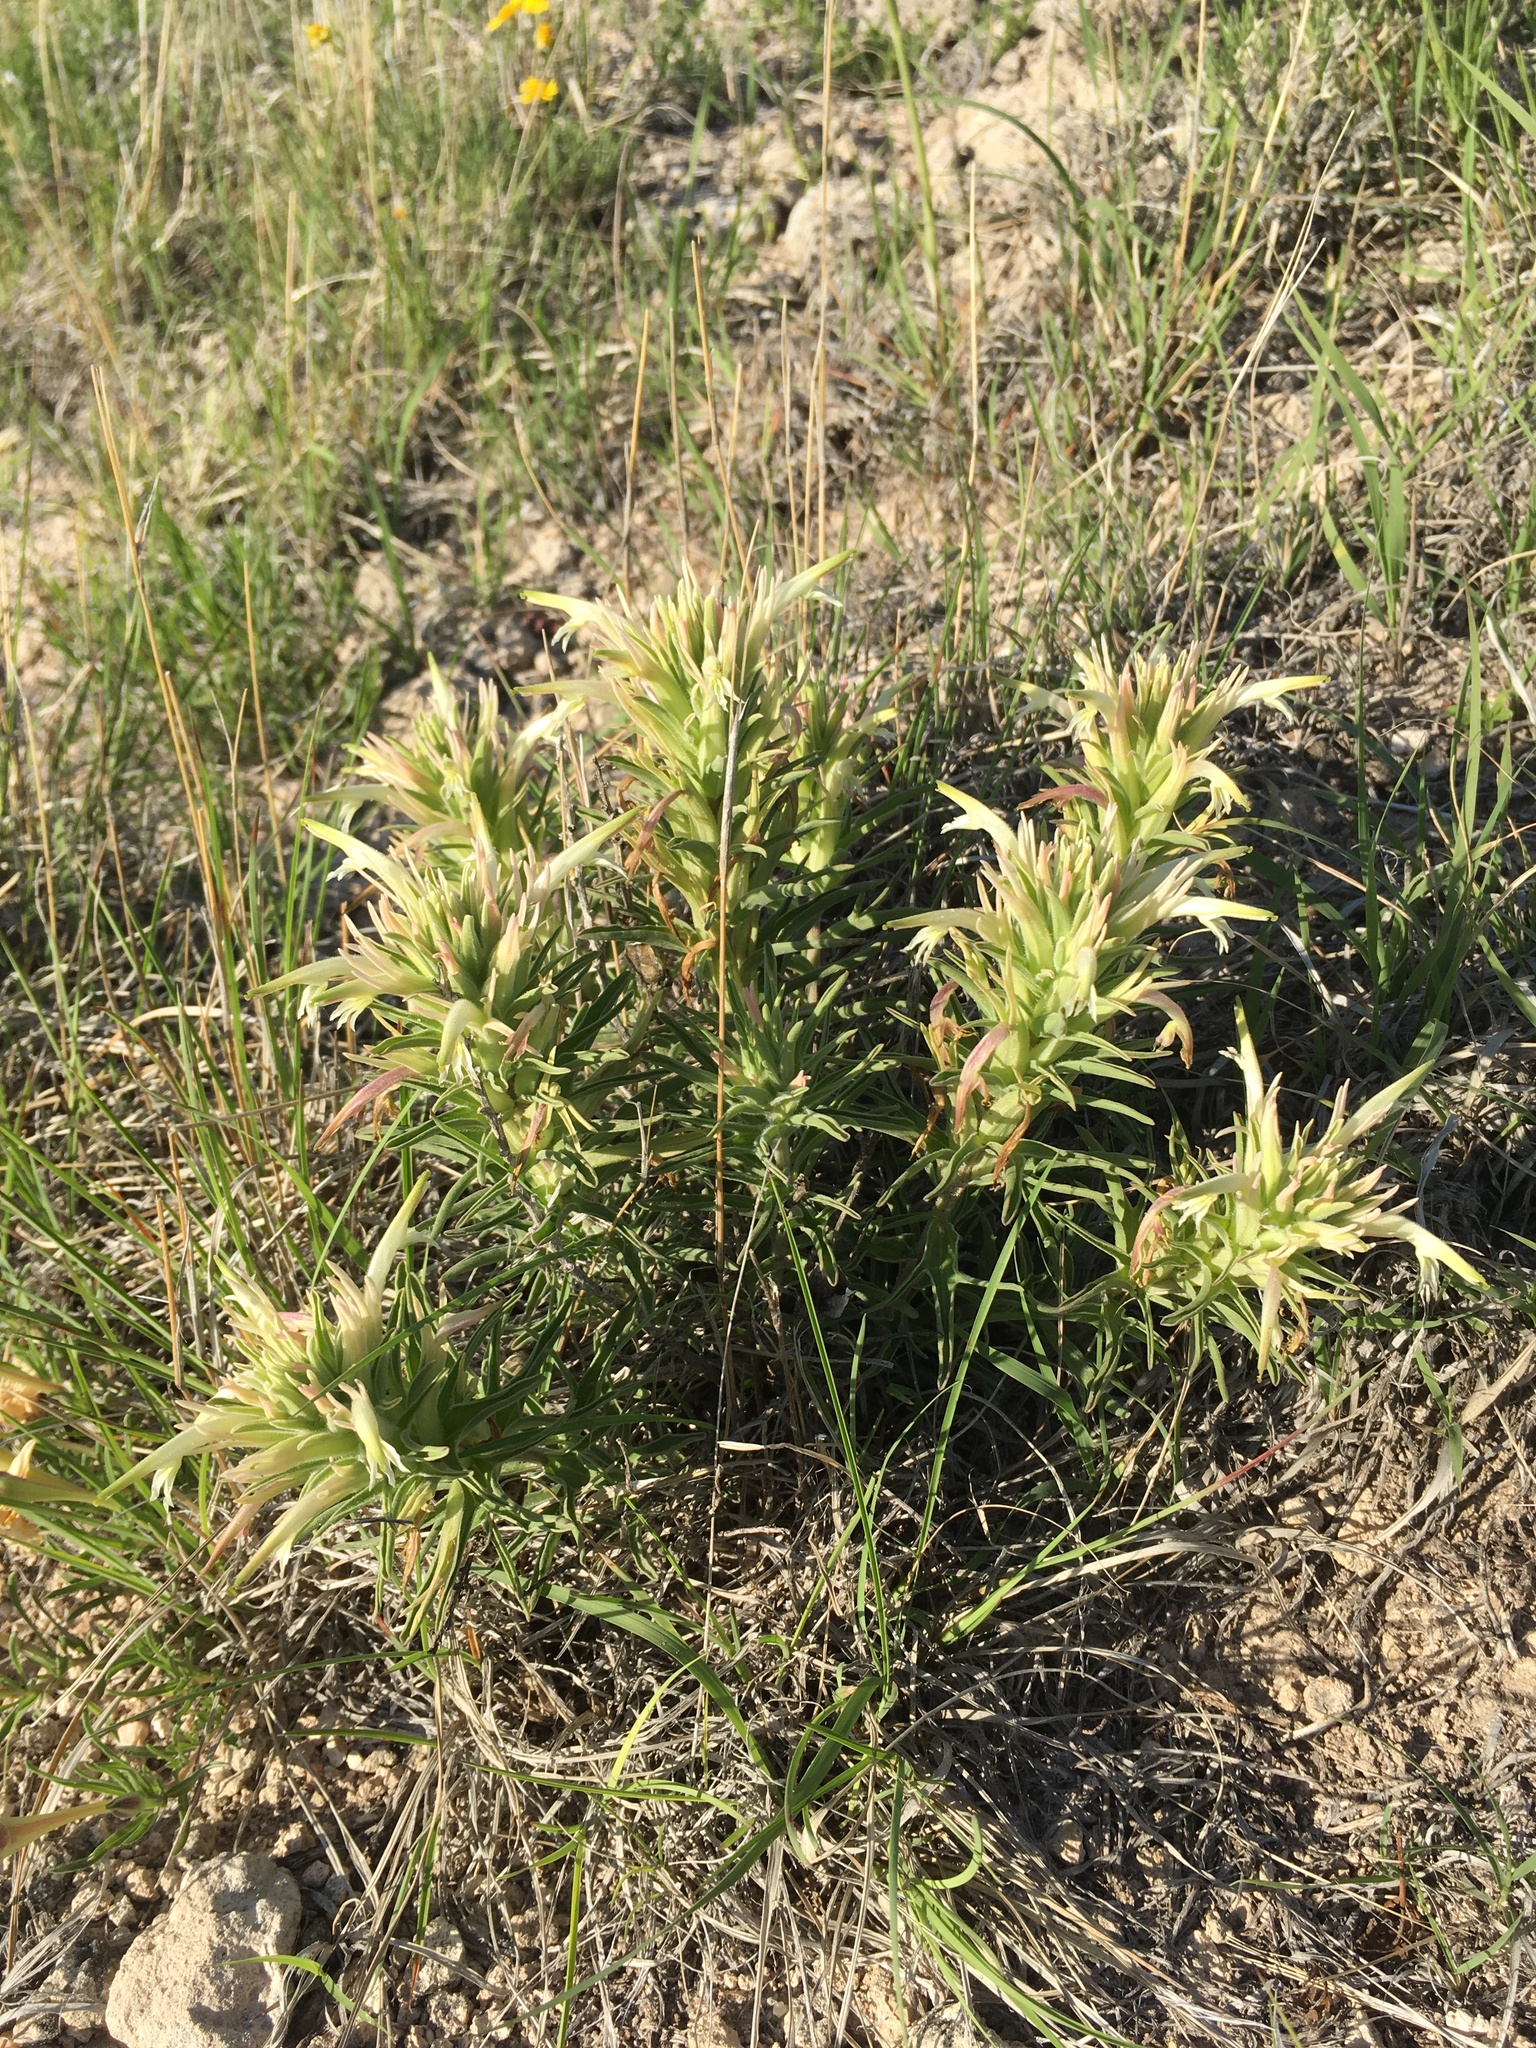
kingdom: Plantae
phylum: Tracheophyta
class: Magnoliopsida
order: Lamiales
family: Orobanchaceae
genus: Castilleja
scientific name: Castilleja sessiliflora
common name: Downy paintbrush
